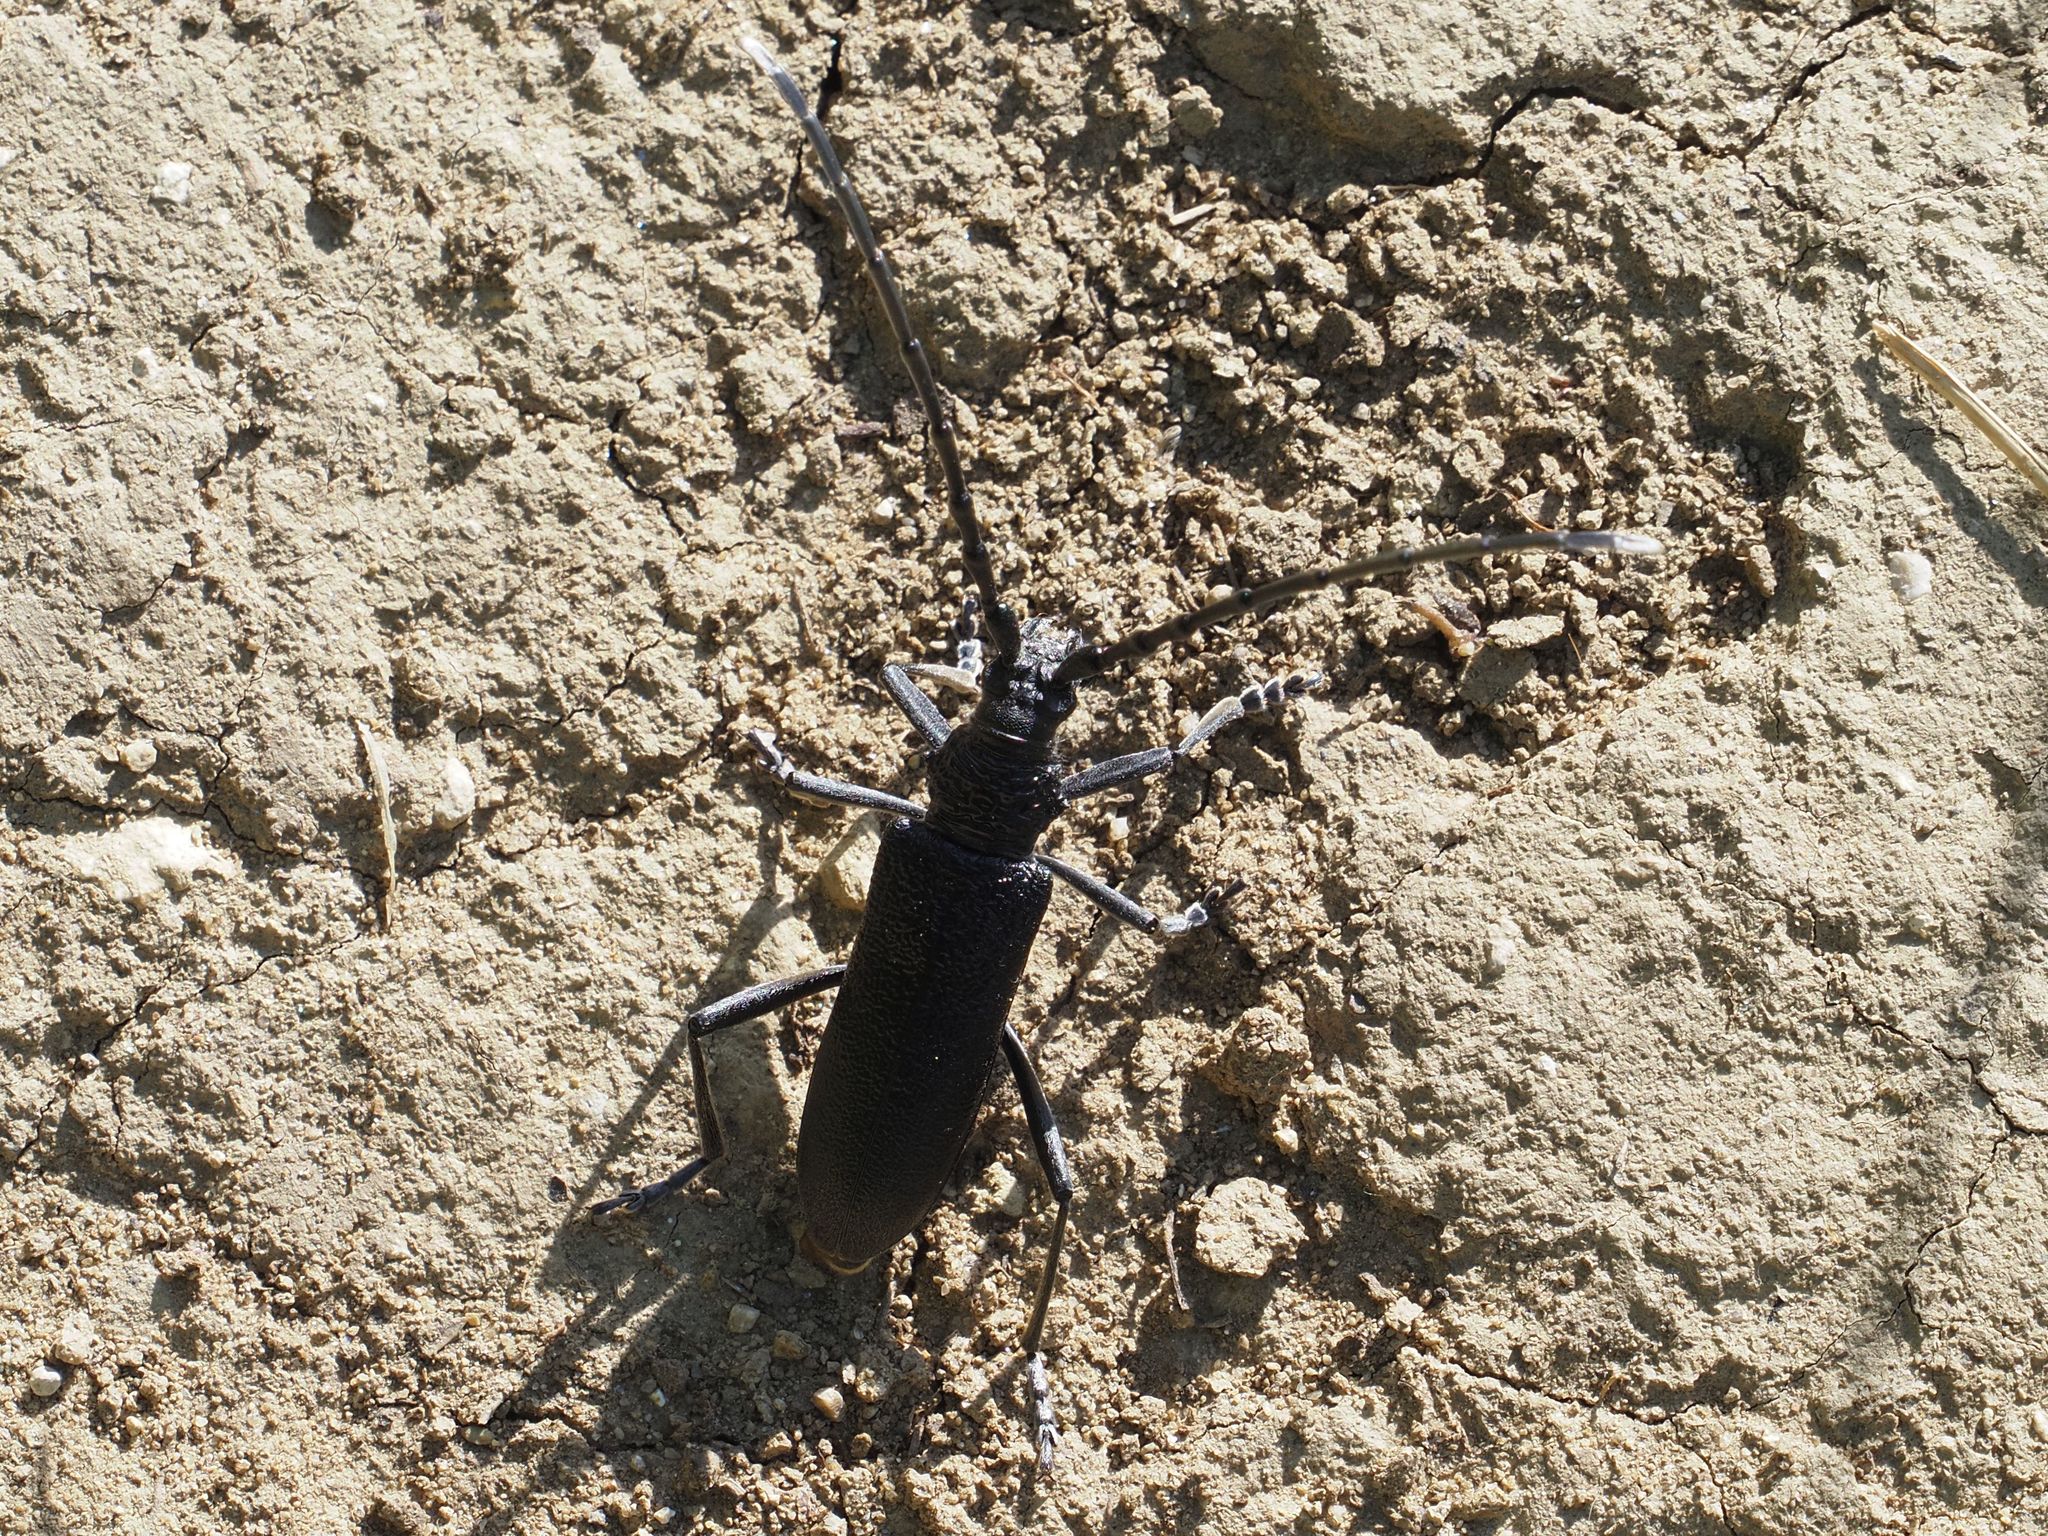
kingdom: Animalia
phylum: Arthropoda
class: Insecta
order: Coleoptera
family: Cerambycidae
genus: Cerambyx
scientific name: Cerambyx scopolii
